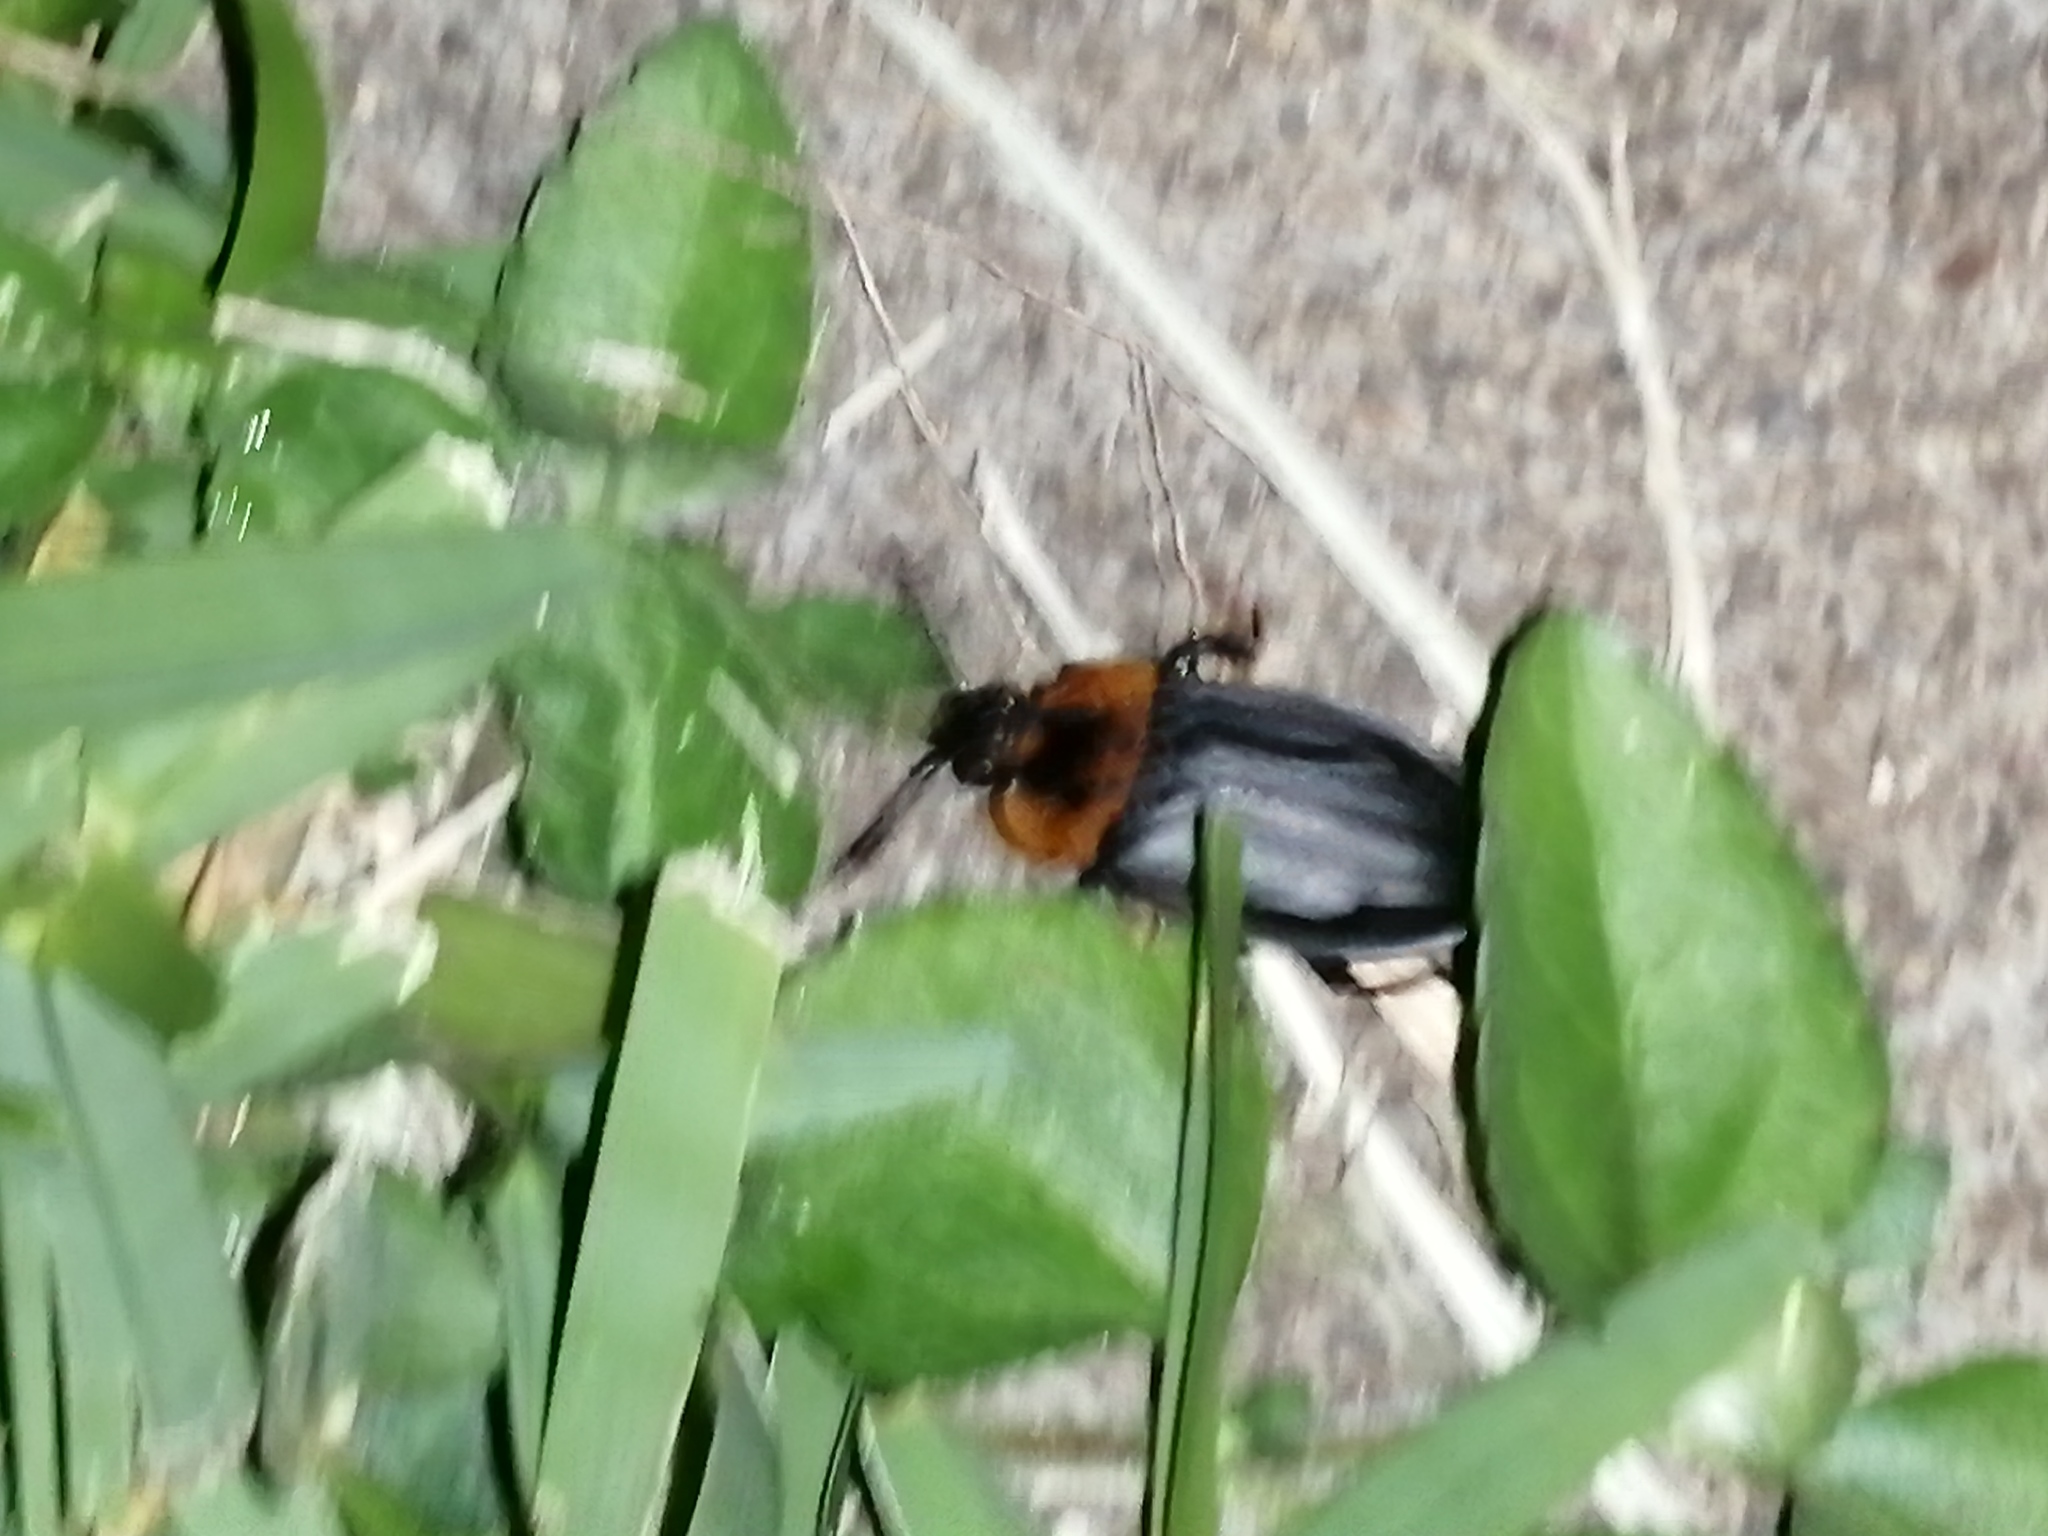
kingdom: Animalia
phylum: Arthropoda
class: Insecta
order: Coleoptera
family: Staphylinidae
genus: Oxelytrum
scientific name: Oxelytrum discicolle
